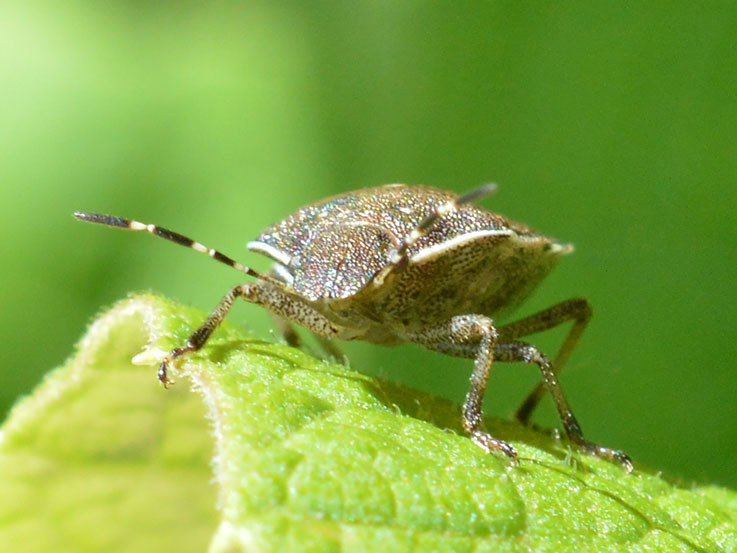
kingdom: Animalia
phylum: Arthropoda
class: Insecta
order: Hemiptera
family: Pentatomidae
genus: Holcostethus
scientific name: Holcostethus sphacelatus
